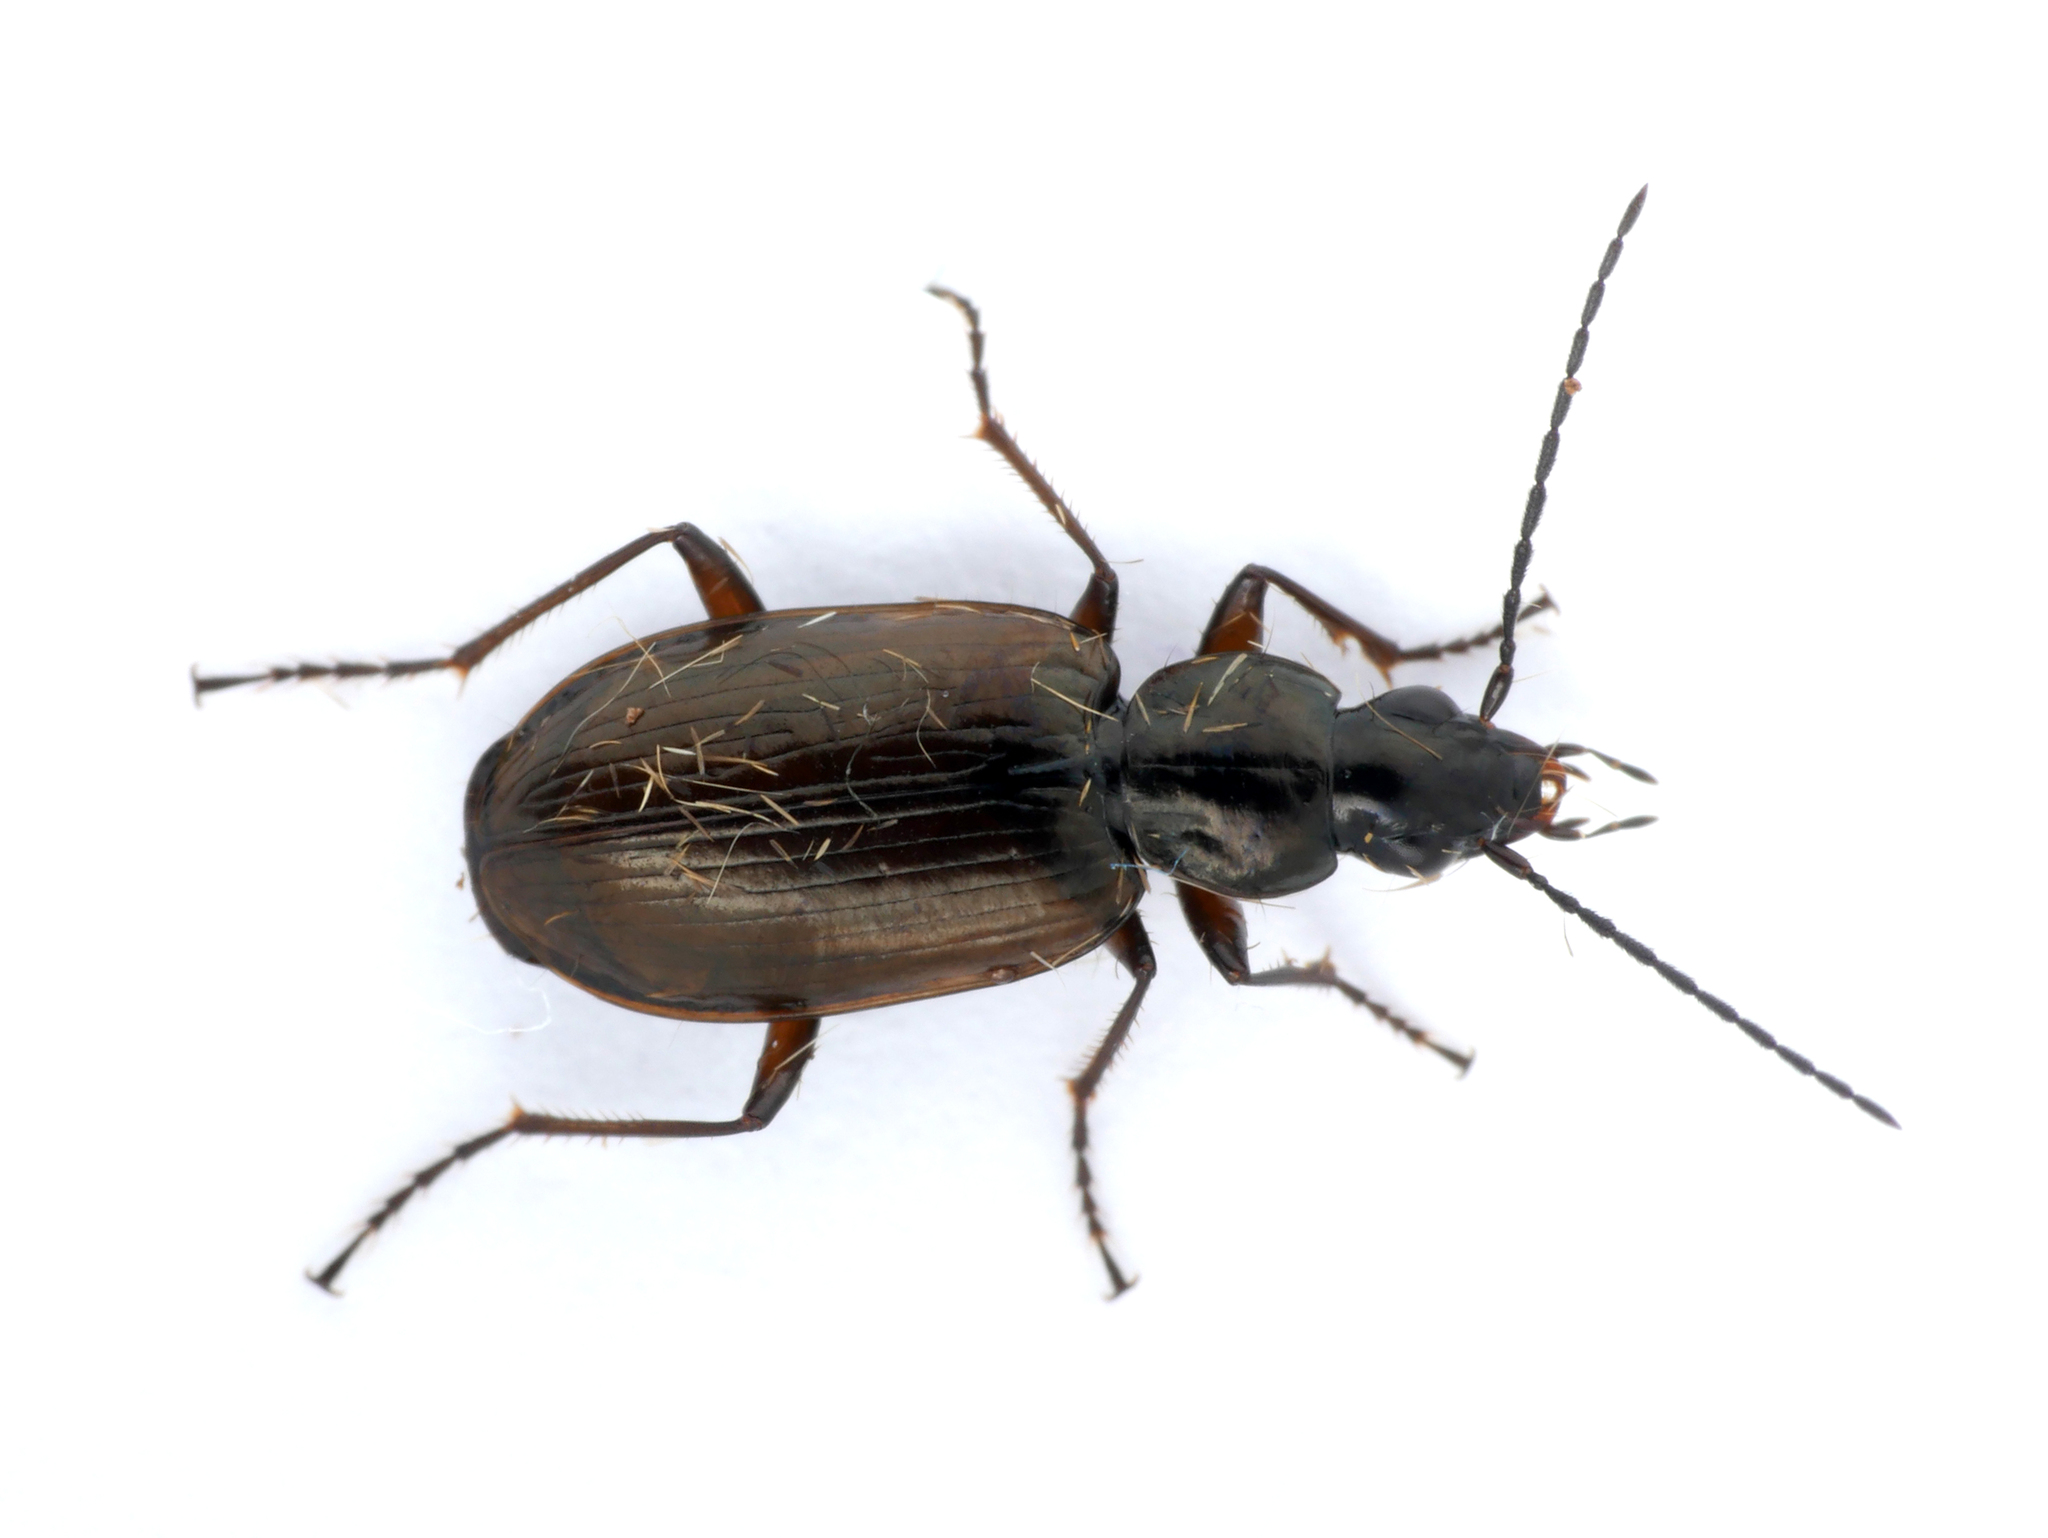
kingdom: Animalia
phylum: Arthropoda
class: Insecta
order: Coleoptera
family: Carabidae
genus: Agonum
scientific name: Agonum piceum
